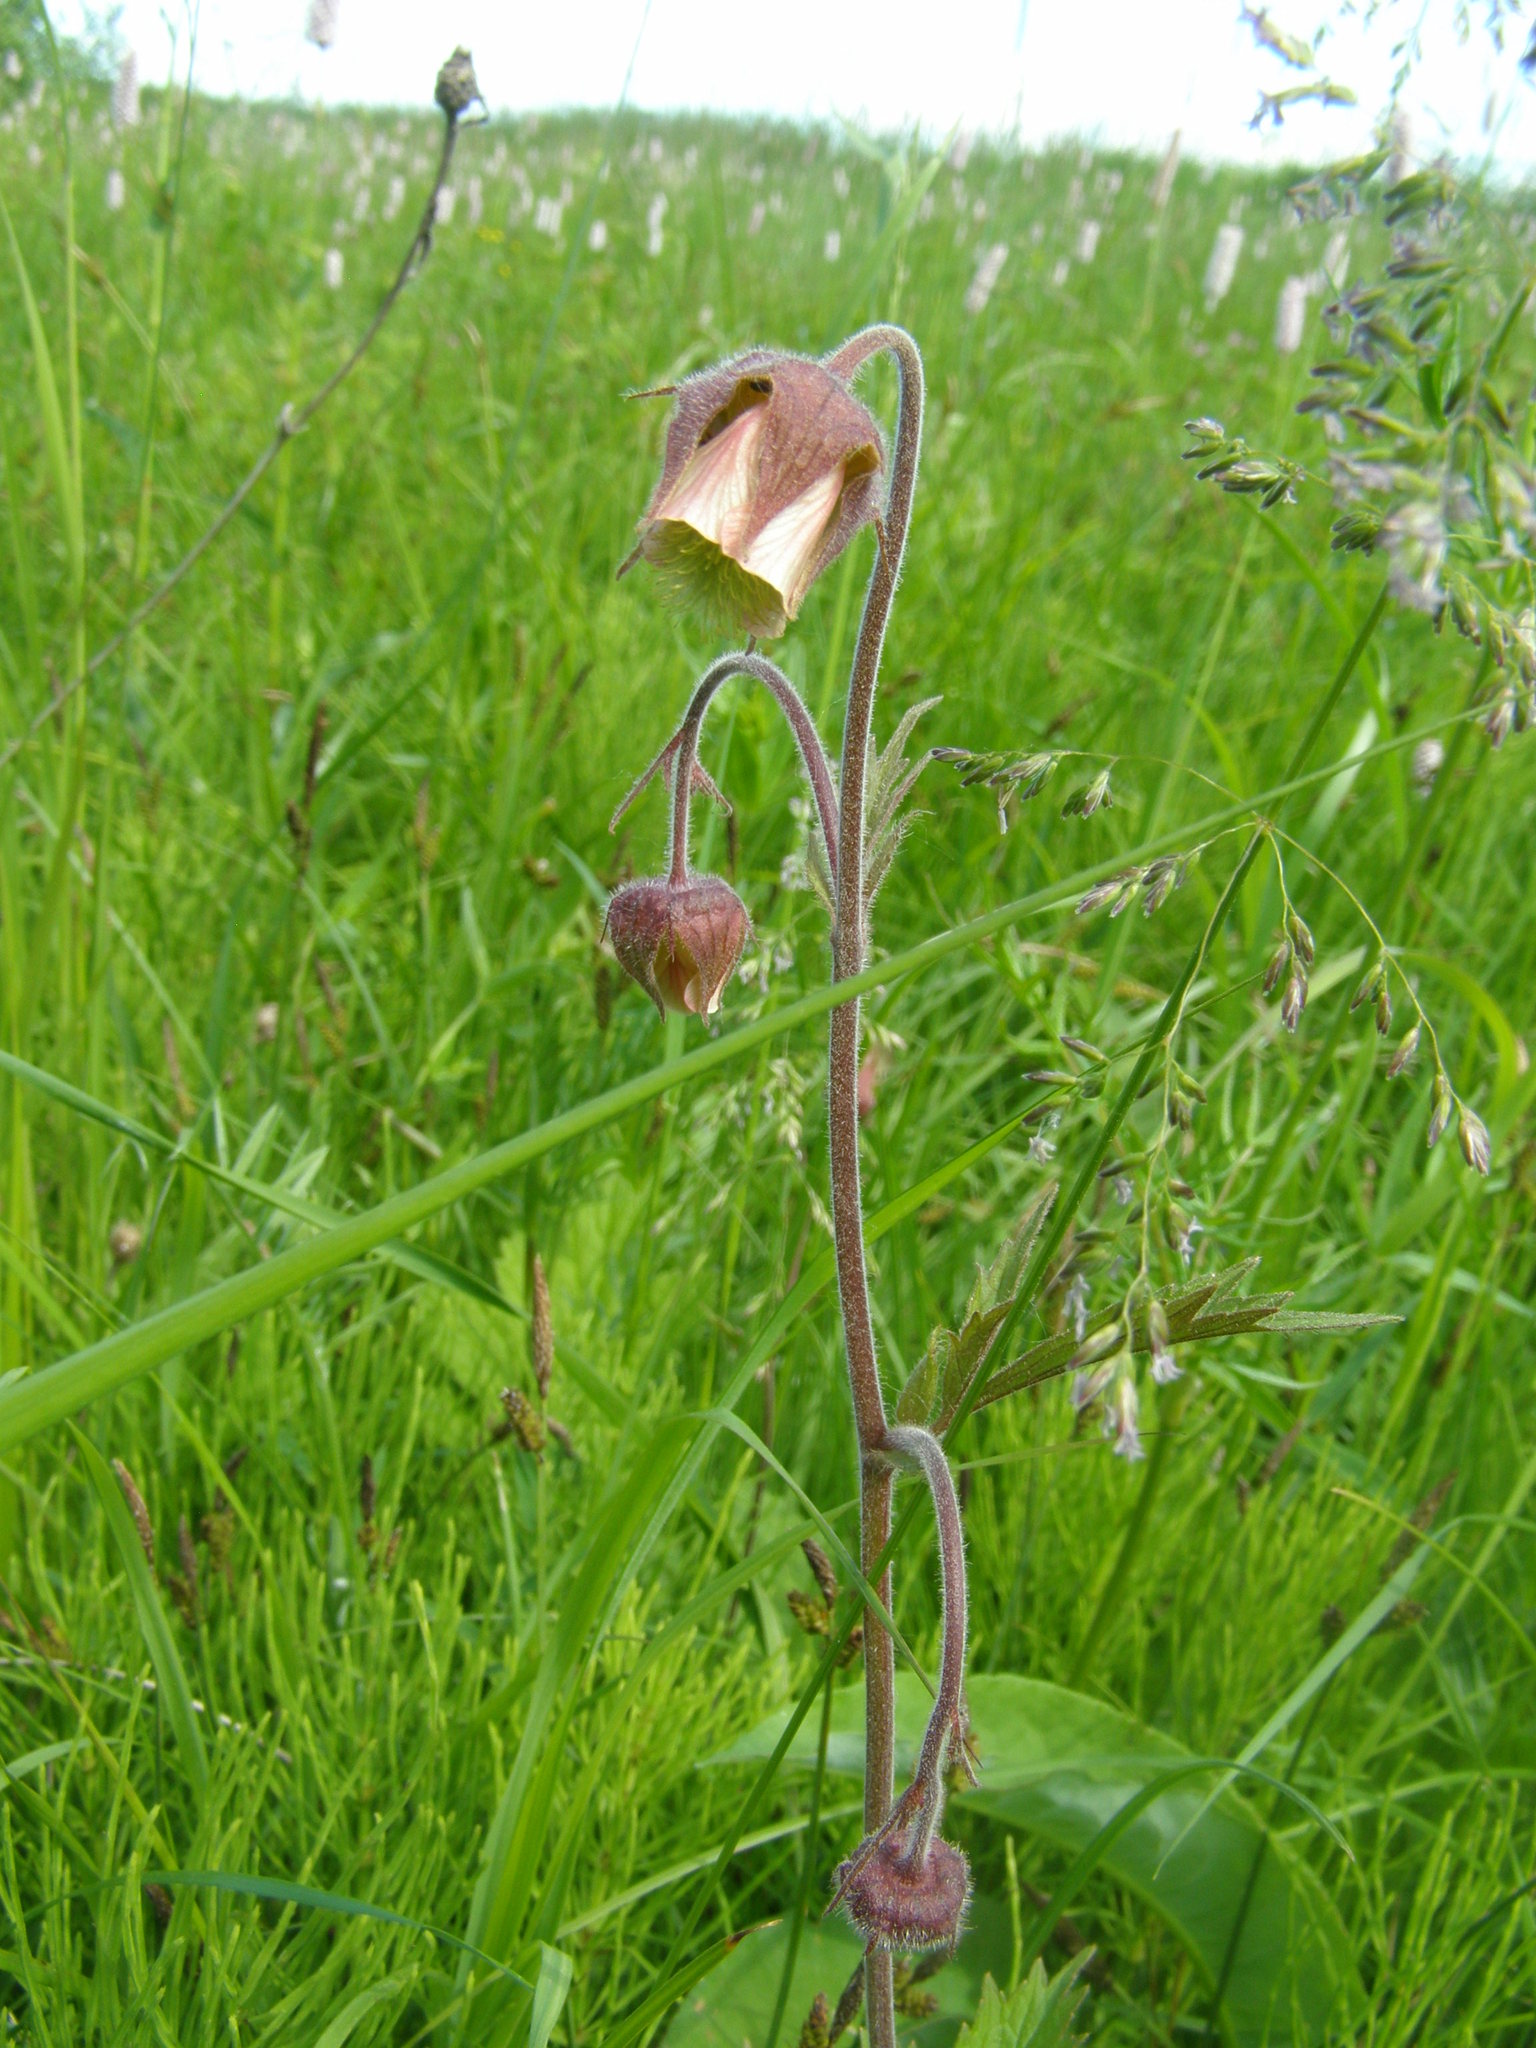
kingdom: Plantae
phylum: Tracheophyta
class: Magnoliopsida
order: Rosales
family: Rosaceae
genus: Geum
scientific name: Geum rivale
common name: Water avens
